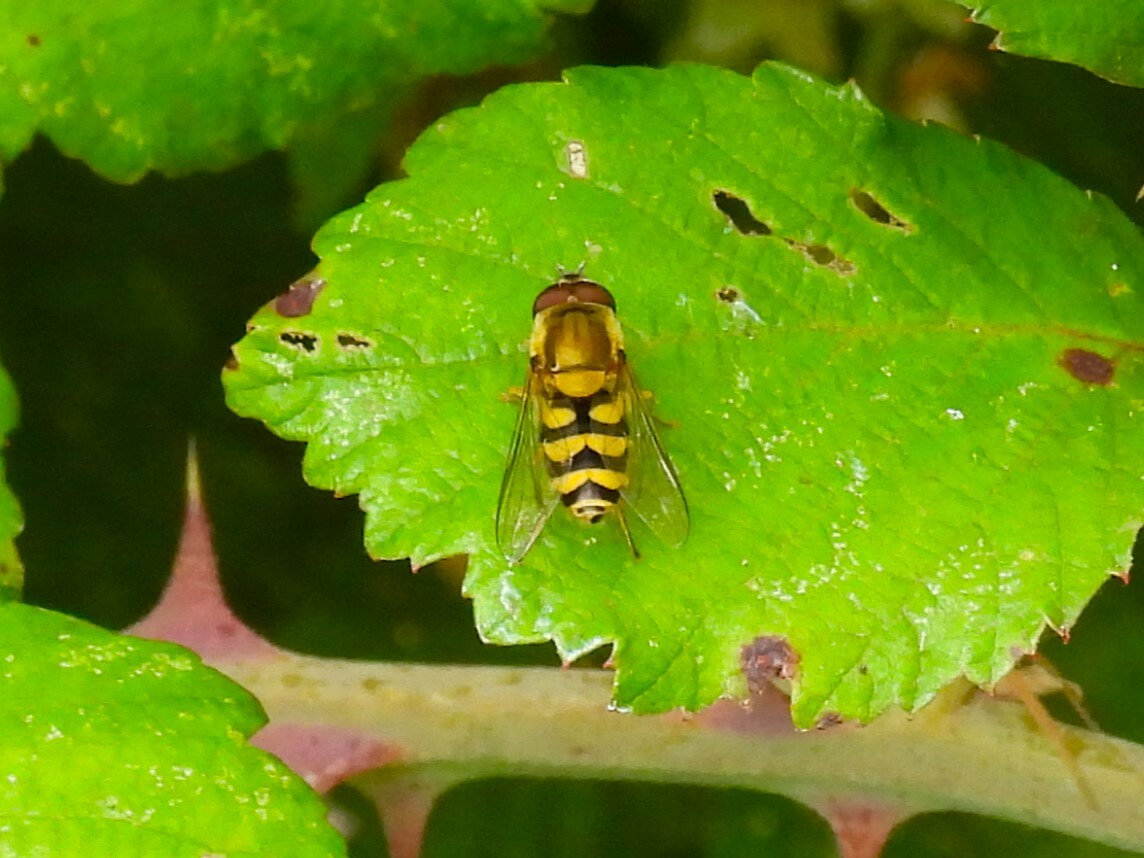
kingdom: Animalia
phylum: Arthropoda
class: Insecta
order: Diptera
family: Syrphidae
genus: Syrphus
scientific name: Syrphus
